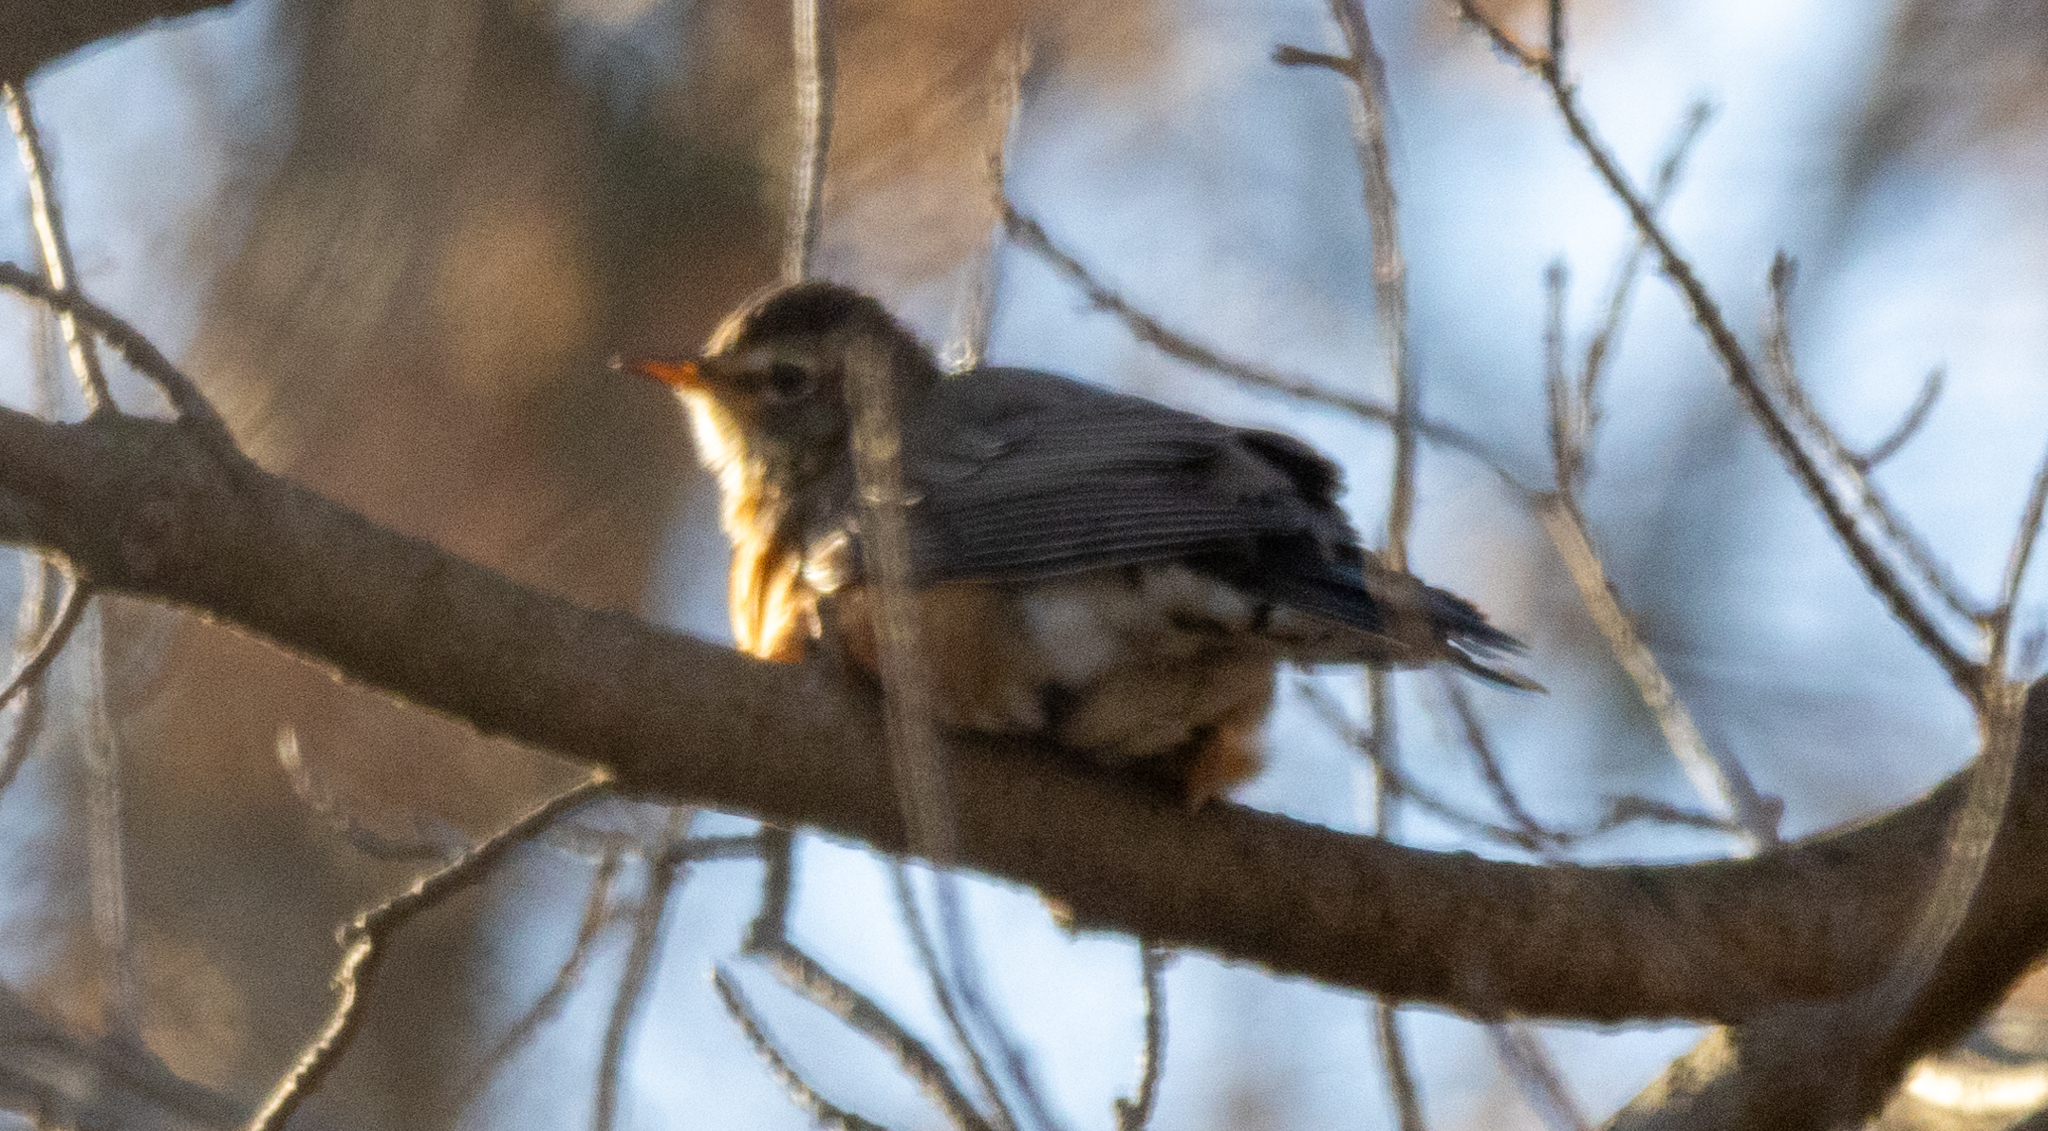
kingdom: Animalia
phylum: Chordata
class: Aves
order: Passeriformes
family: Turdidae
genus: Turdus
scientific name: Turdus migratorius
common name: American robin
